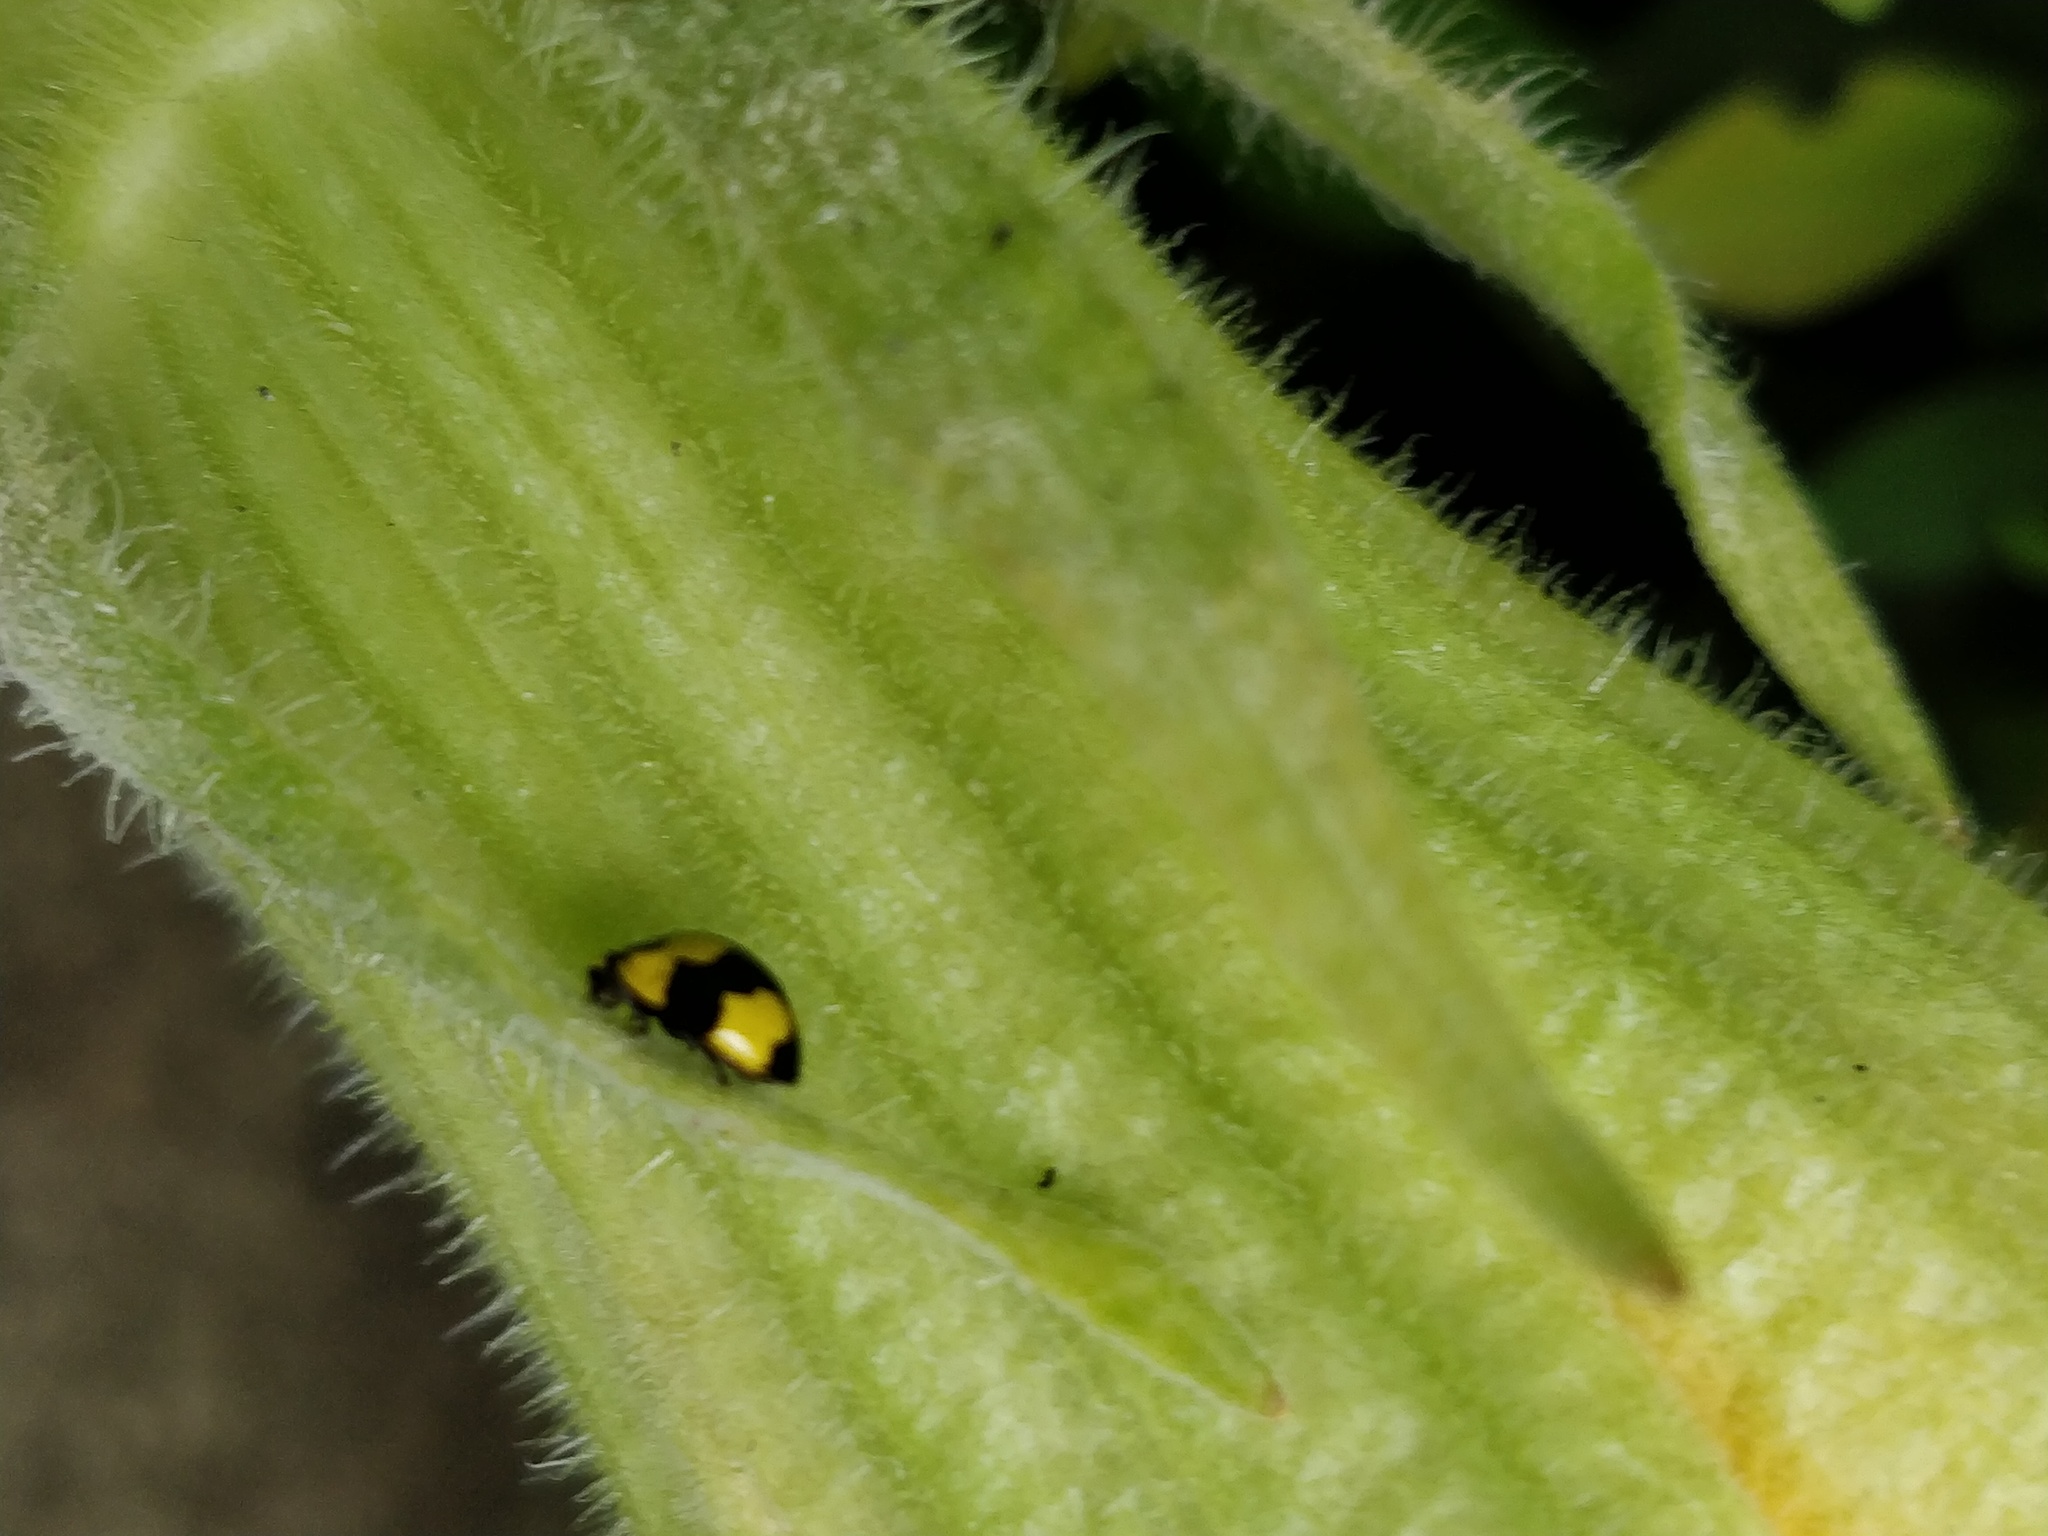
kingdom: Animalia
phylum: Arthropoda
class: Insecta
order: Coleoptera
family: Coccinellidae
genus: Illeis
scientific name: Illeis galbula
